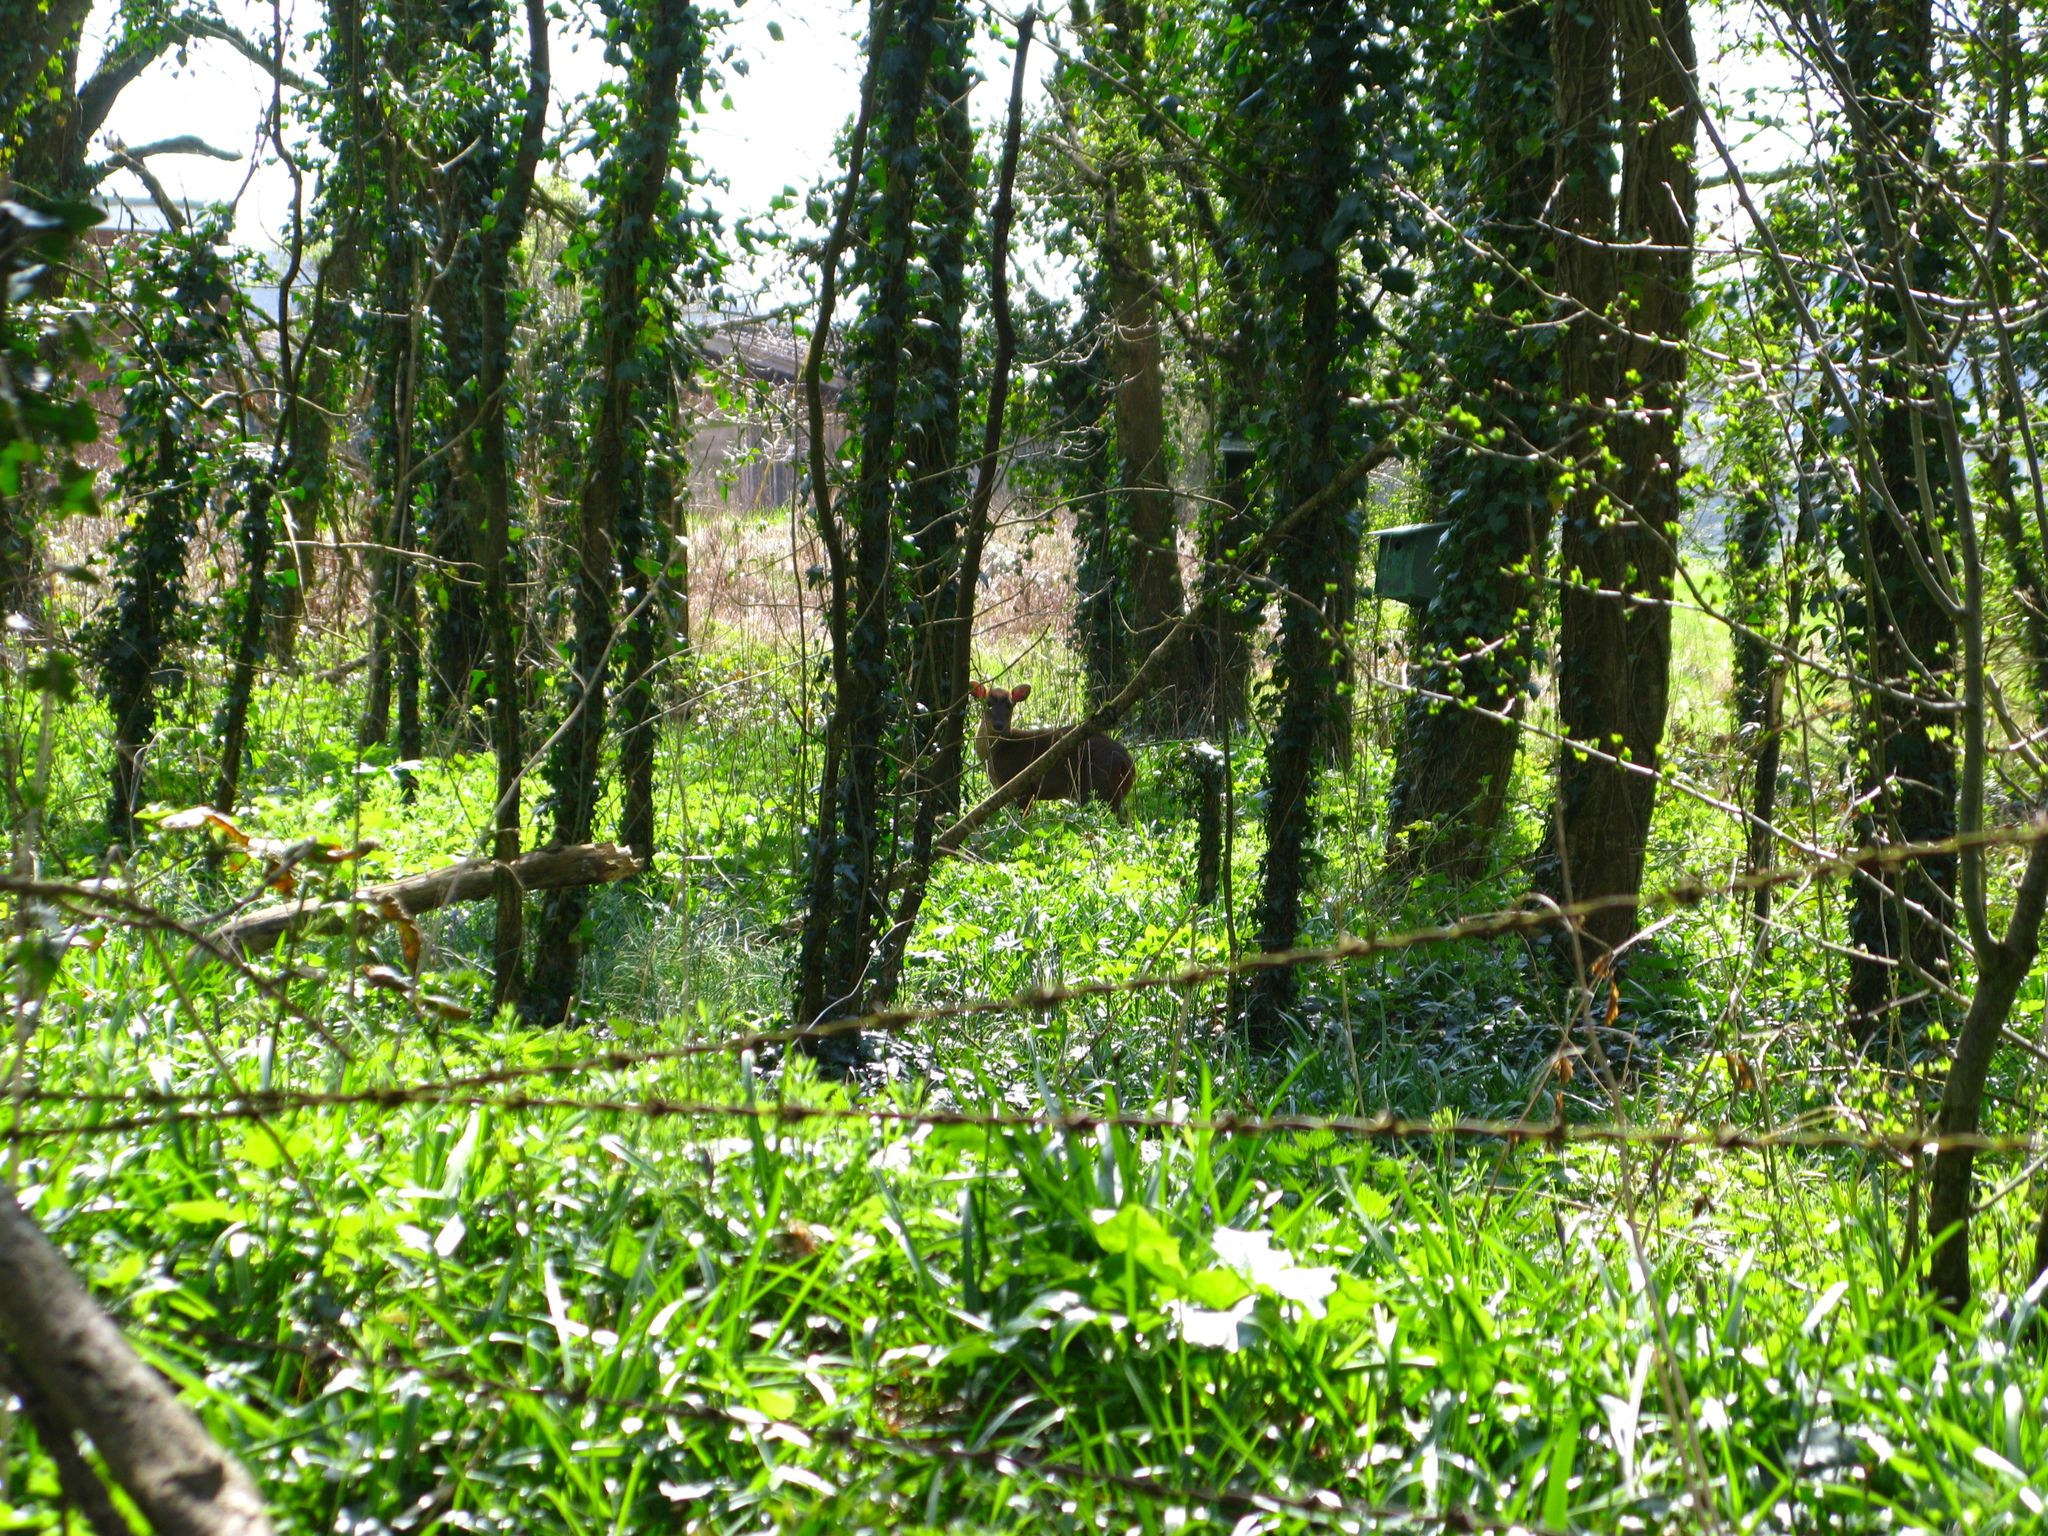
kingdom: Animalia
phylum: Chordata
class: Mammalia
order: Artiodactyla
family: Cervidae
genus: Muntiacus
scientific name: Muntiacus reevesi
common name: Reeves' muntjac
